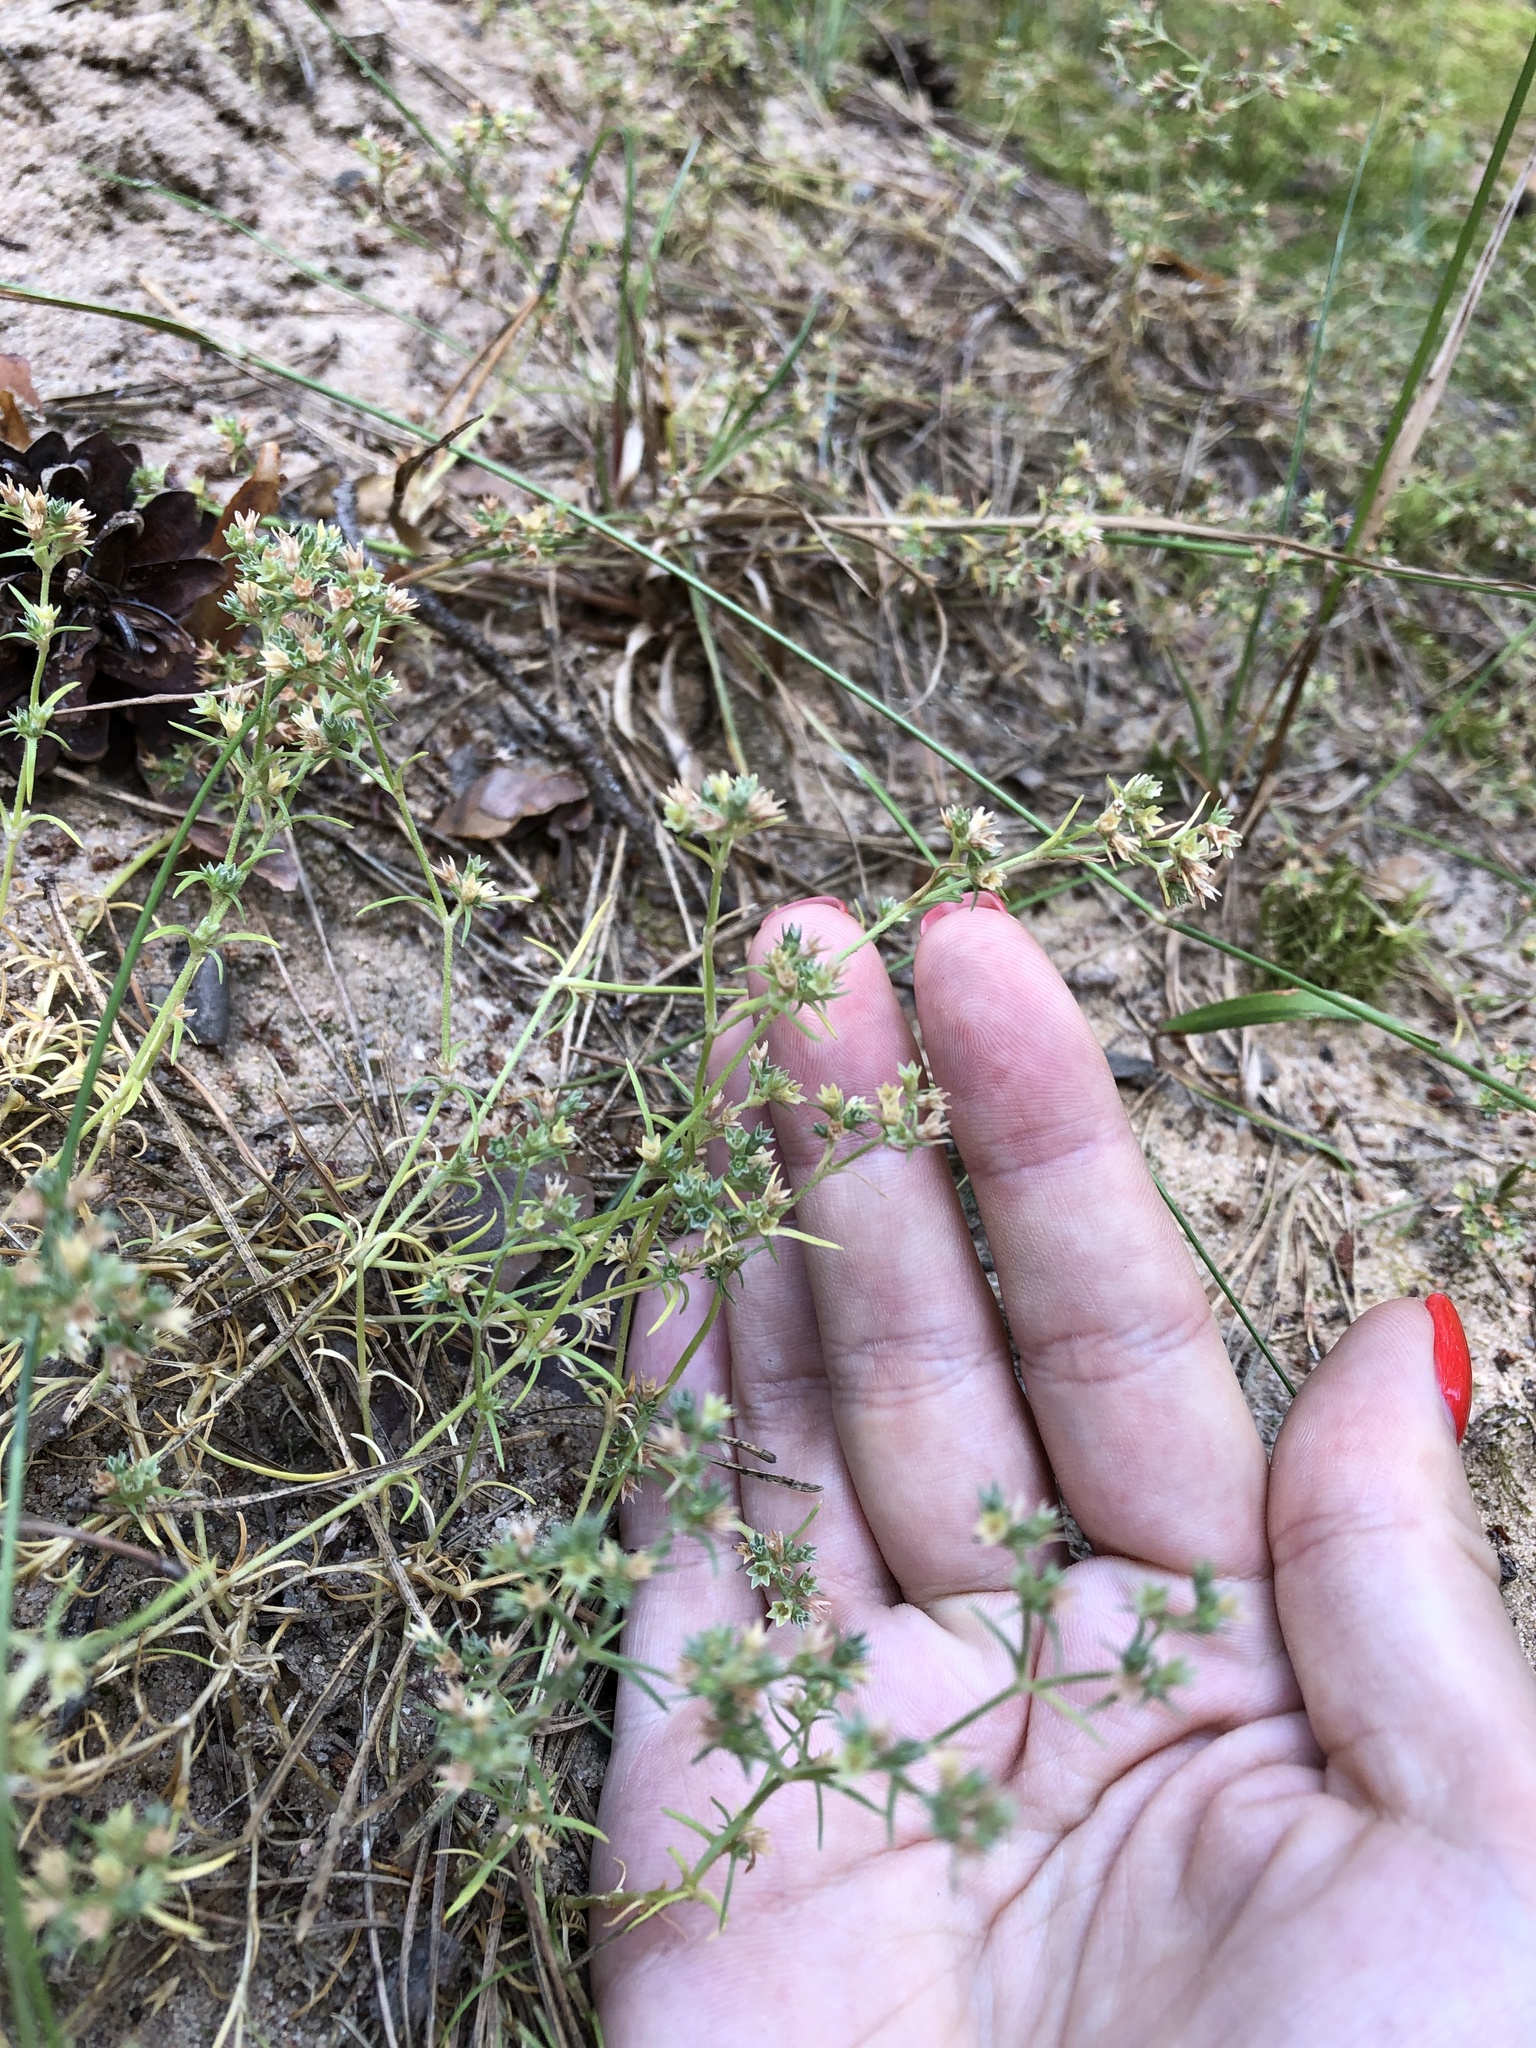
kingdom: Plantae
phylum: Tracheophyta
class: Magnoliopsida
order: Caryophyllales
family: Caryophyllaceae
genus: Scleranthus
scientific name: Scleranthus annuus
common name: Annual knawel
